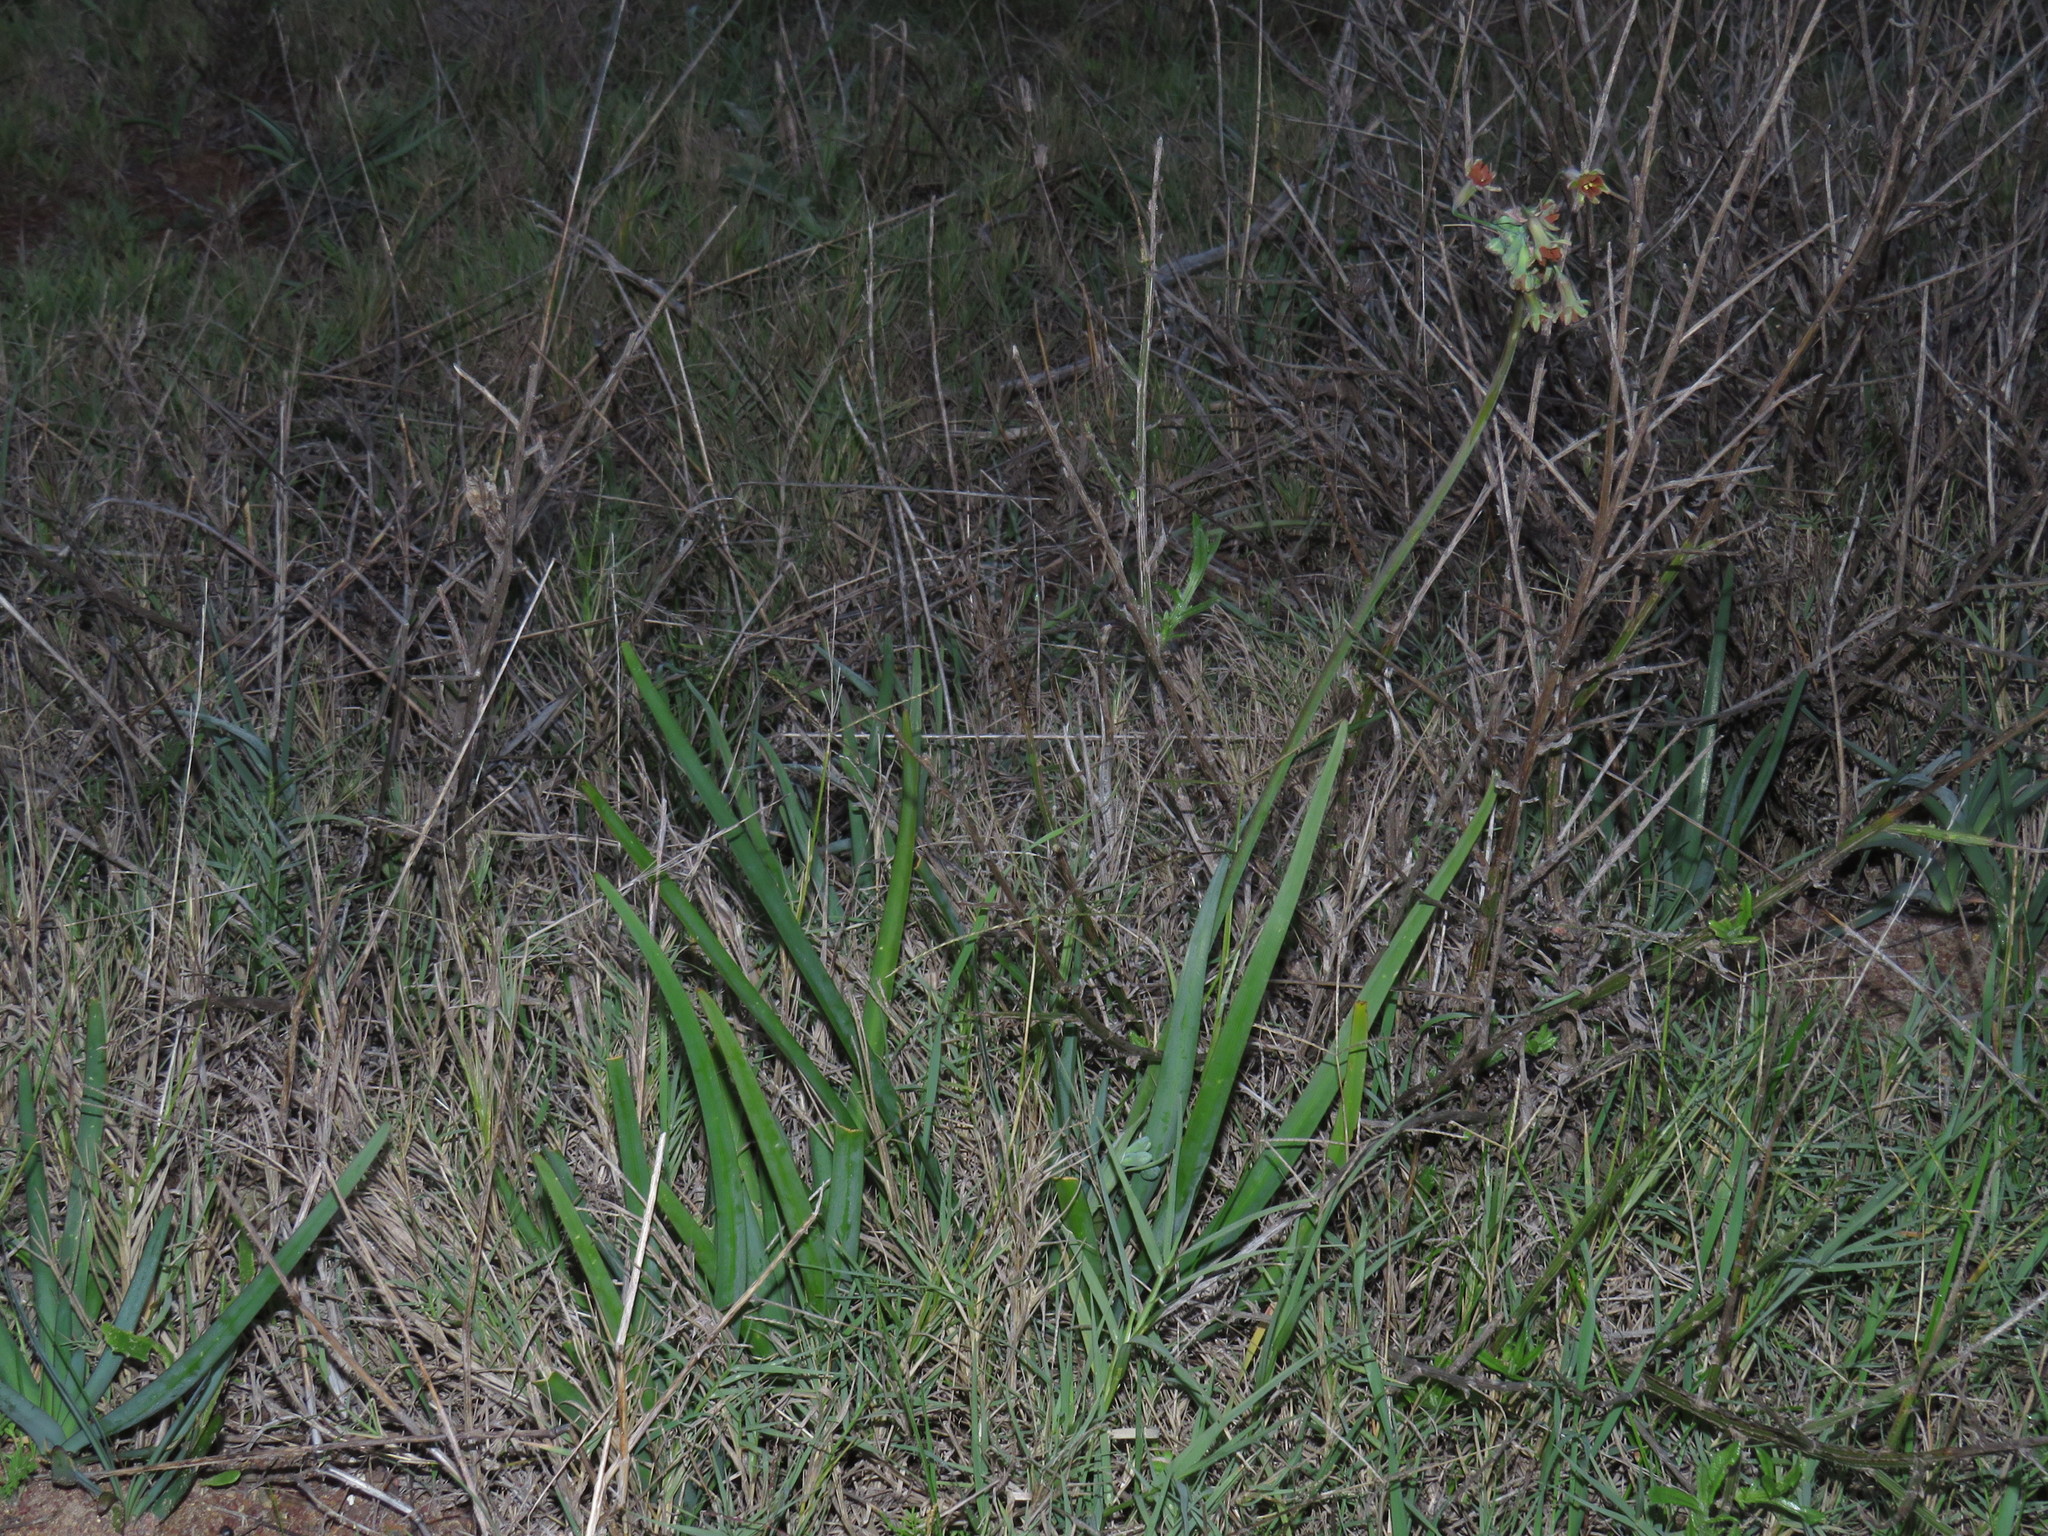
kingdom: Plantae
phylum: Tracheophyta
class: Liliopsida
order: Asparagales
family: Amaryllidaceae
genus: Tulbaghia
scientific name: Tulbaghia capensis
